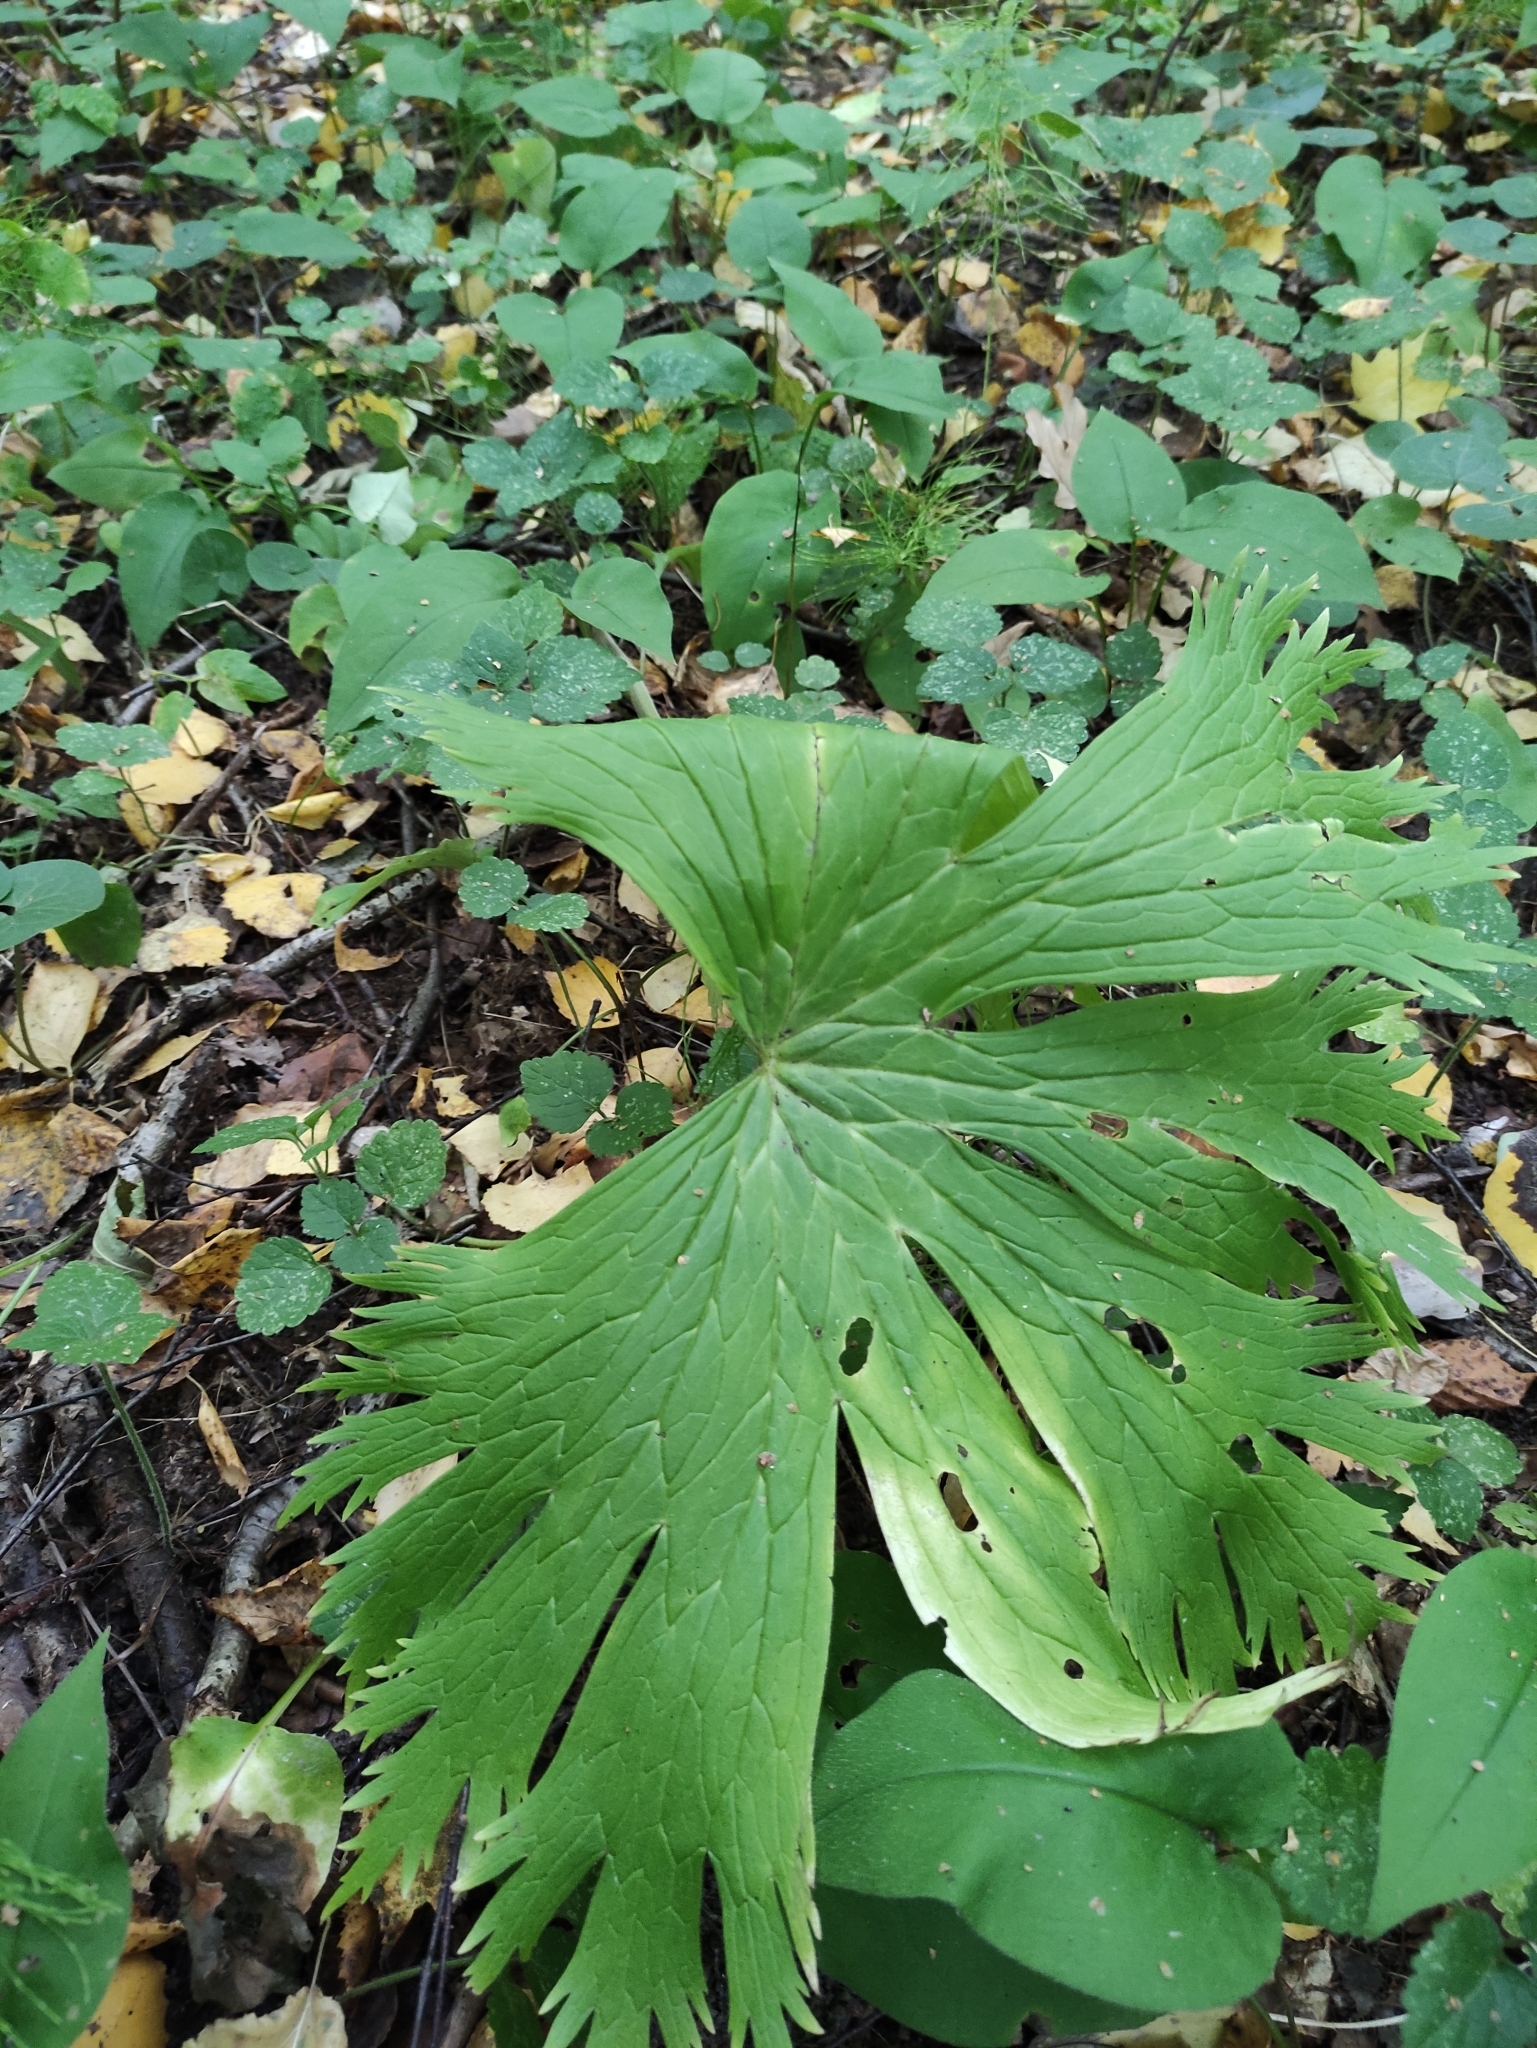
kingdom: Plantae
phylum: Tracheophyta
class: Magnoliopsida
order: Ranunculales
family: Ranunculaceae
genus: Aconitum
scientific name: Aconitum septentrionale
